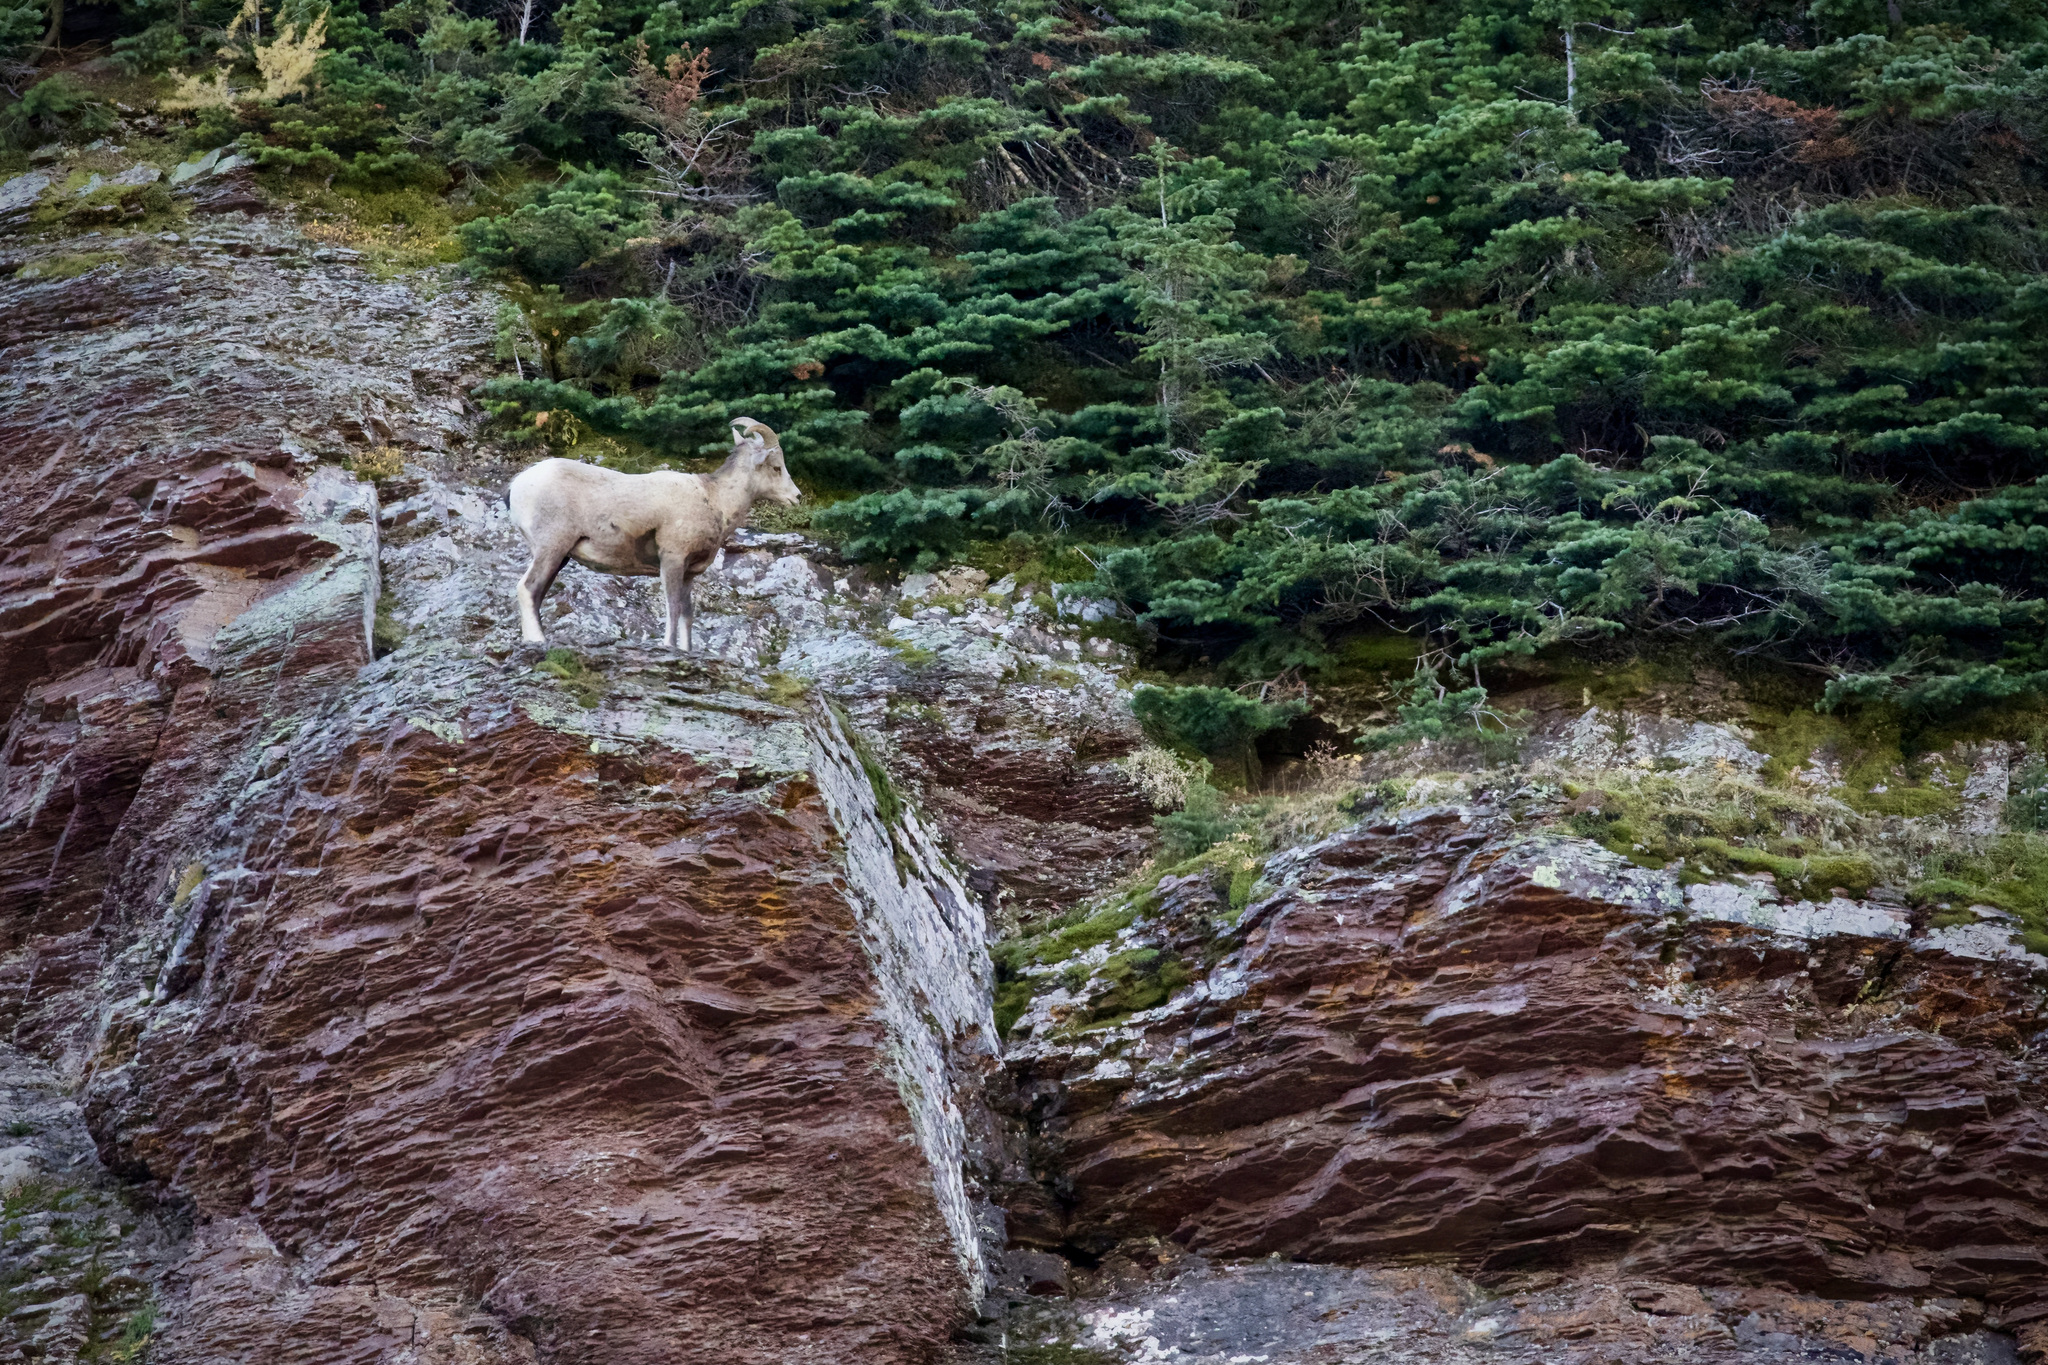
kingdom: Animalia
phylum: Chordata
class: Mammalia
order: Artiodactyla
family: Bovidae
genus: Ovis
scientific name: Ovis canadensis
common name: Bighorn sheep
